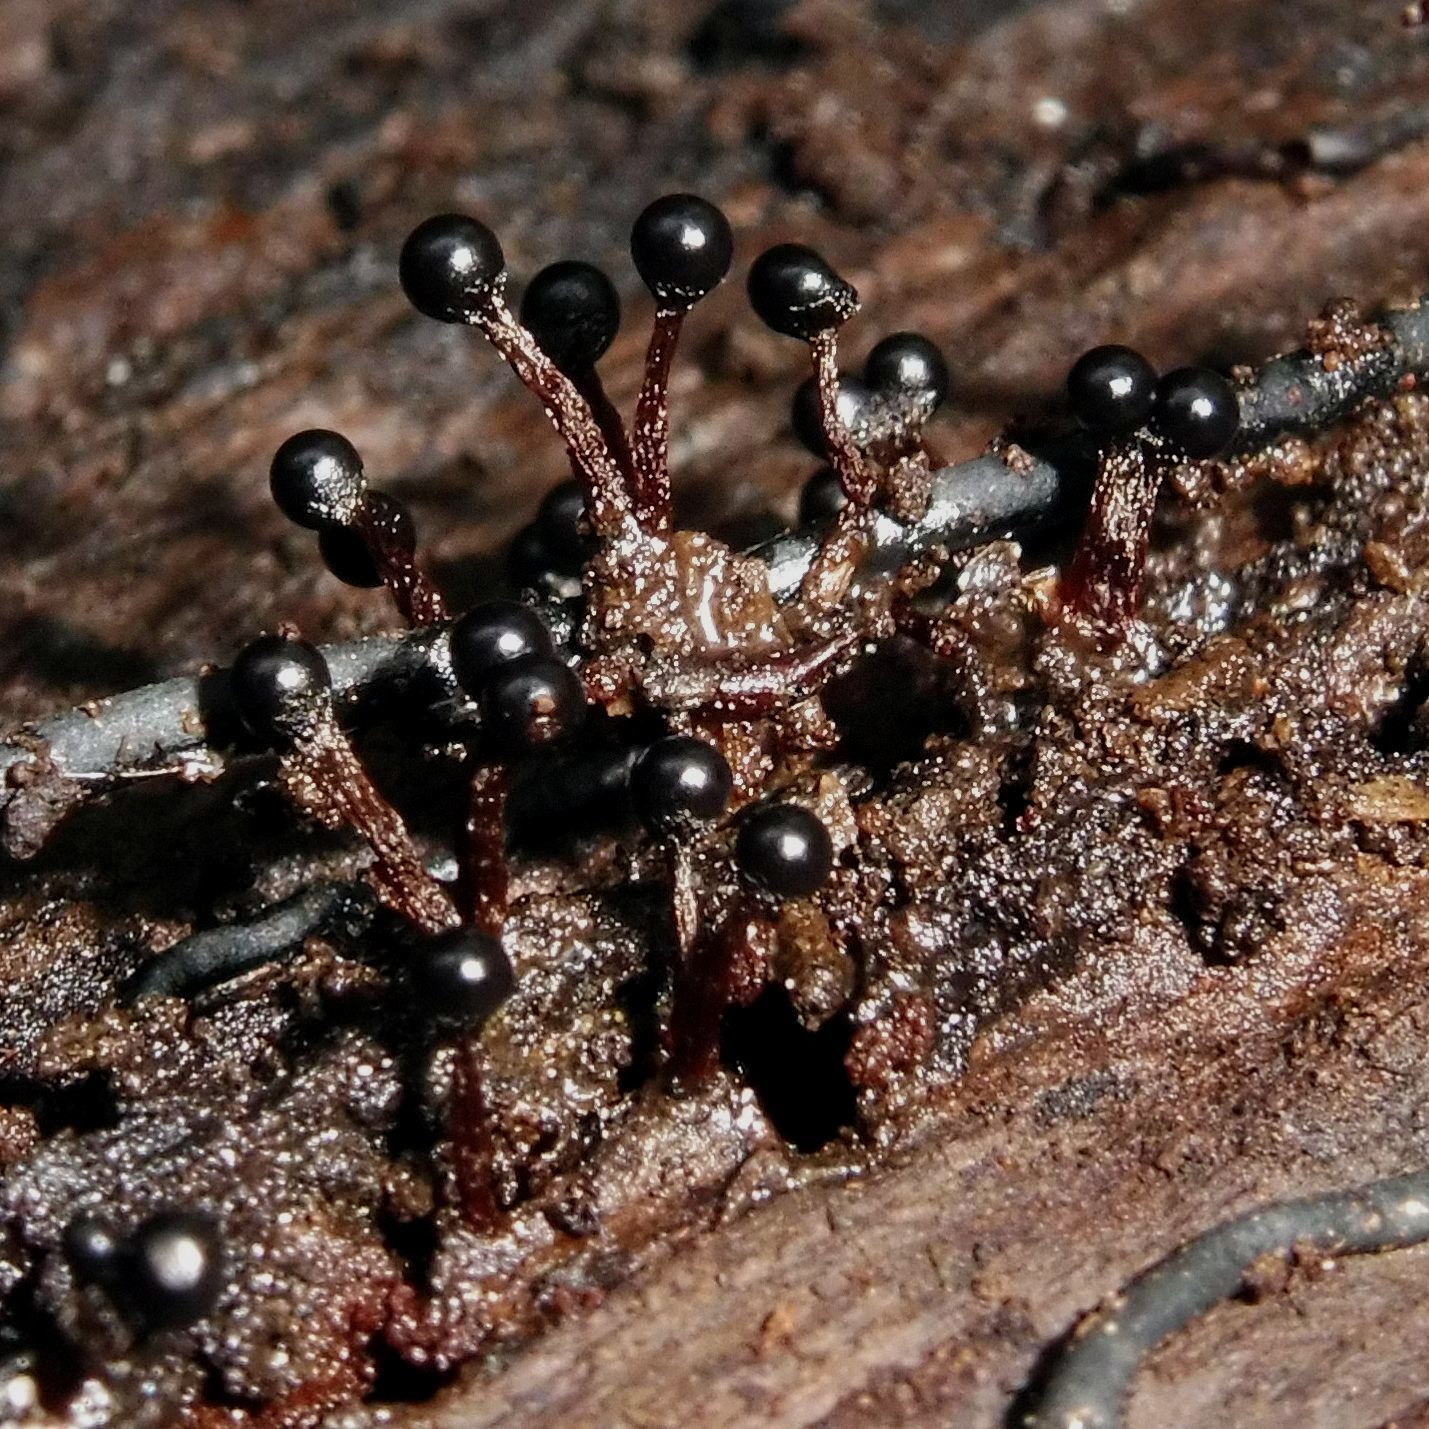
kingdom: Protozoa
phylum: Mycetozoa
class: Myxomycetes
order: Trichiales
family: Trichiaceae
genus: Metatrichia
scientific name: Metatrichia floriformis
